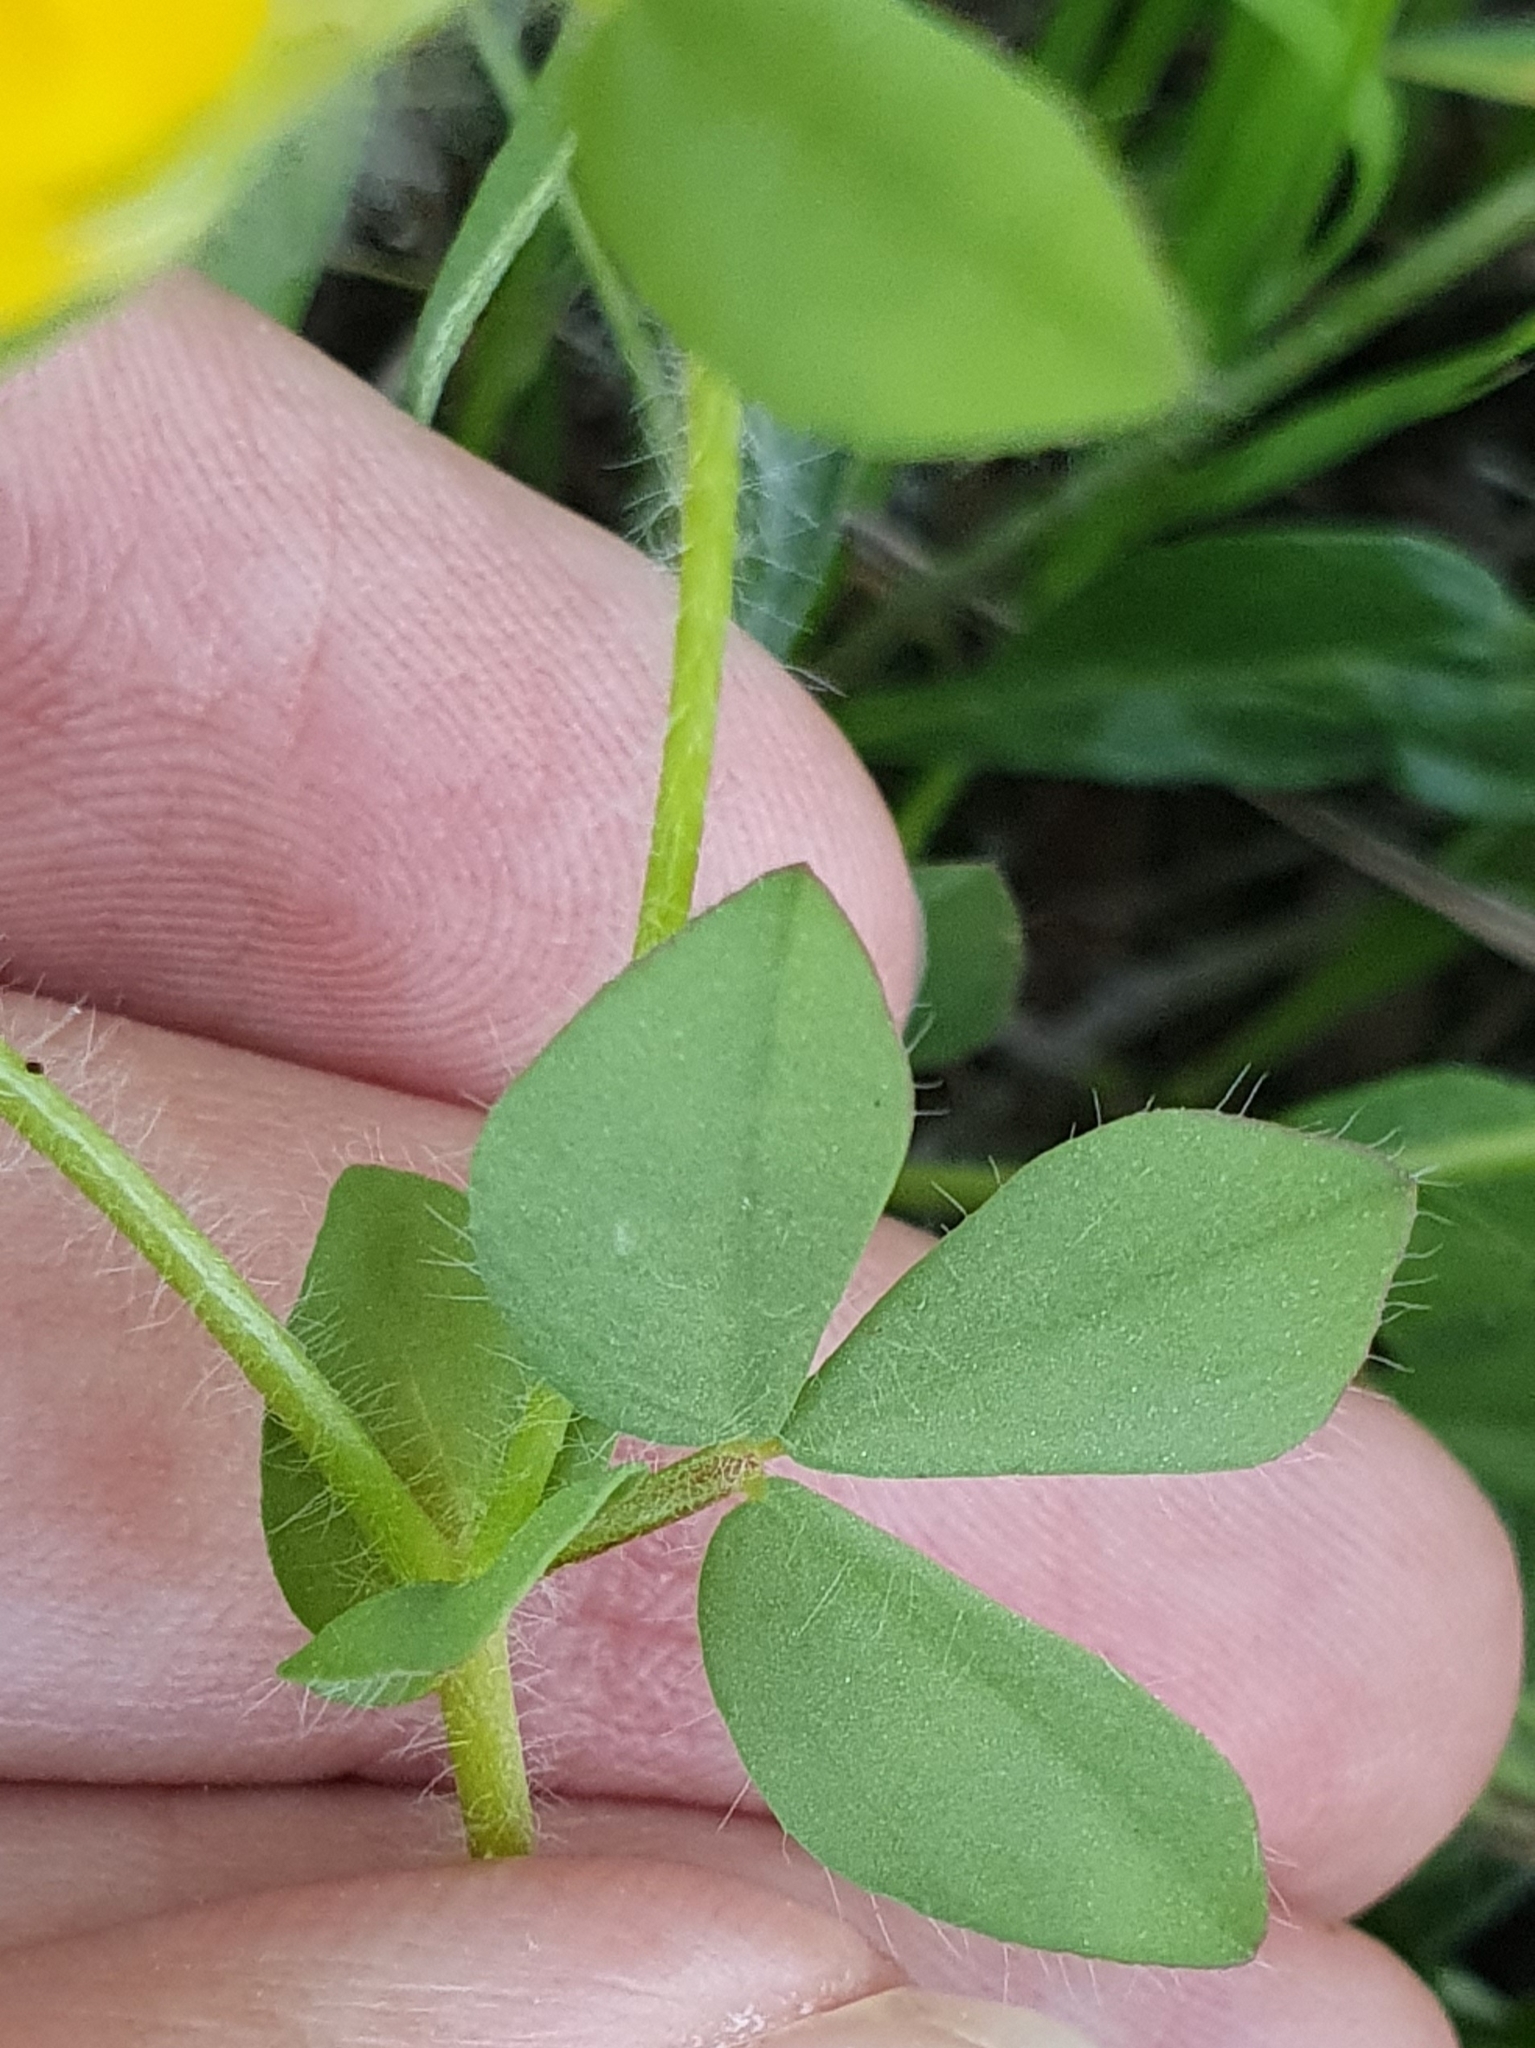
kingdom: Plantae
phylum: Tracheophyta
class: Magnoliopsida
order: Fabales
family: Fabaceae
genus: Lotus
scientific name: Lotus edulis
